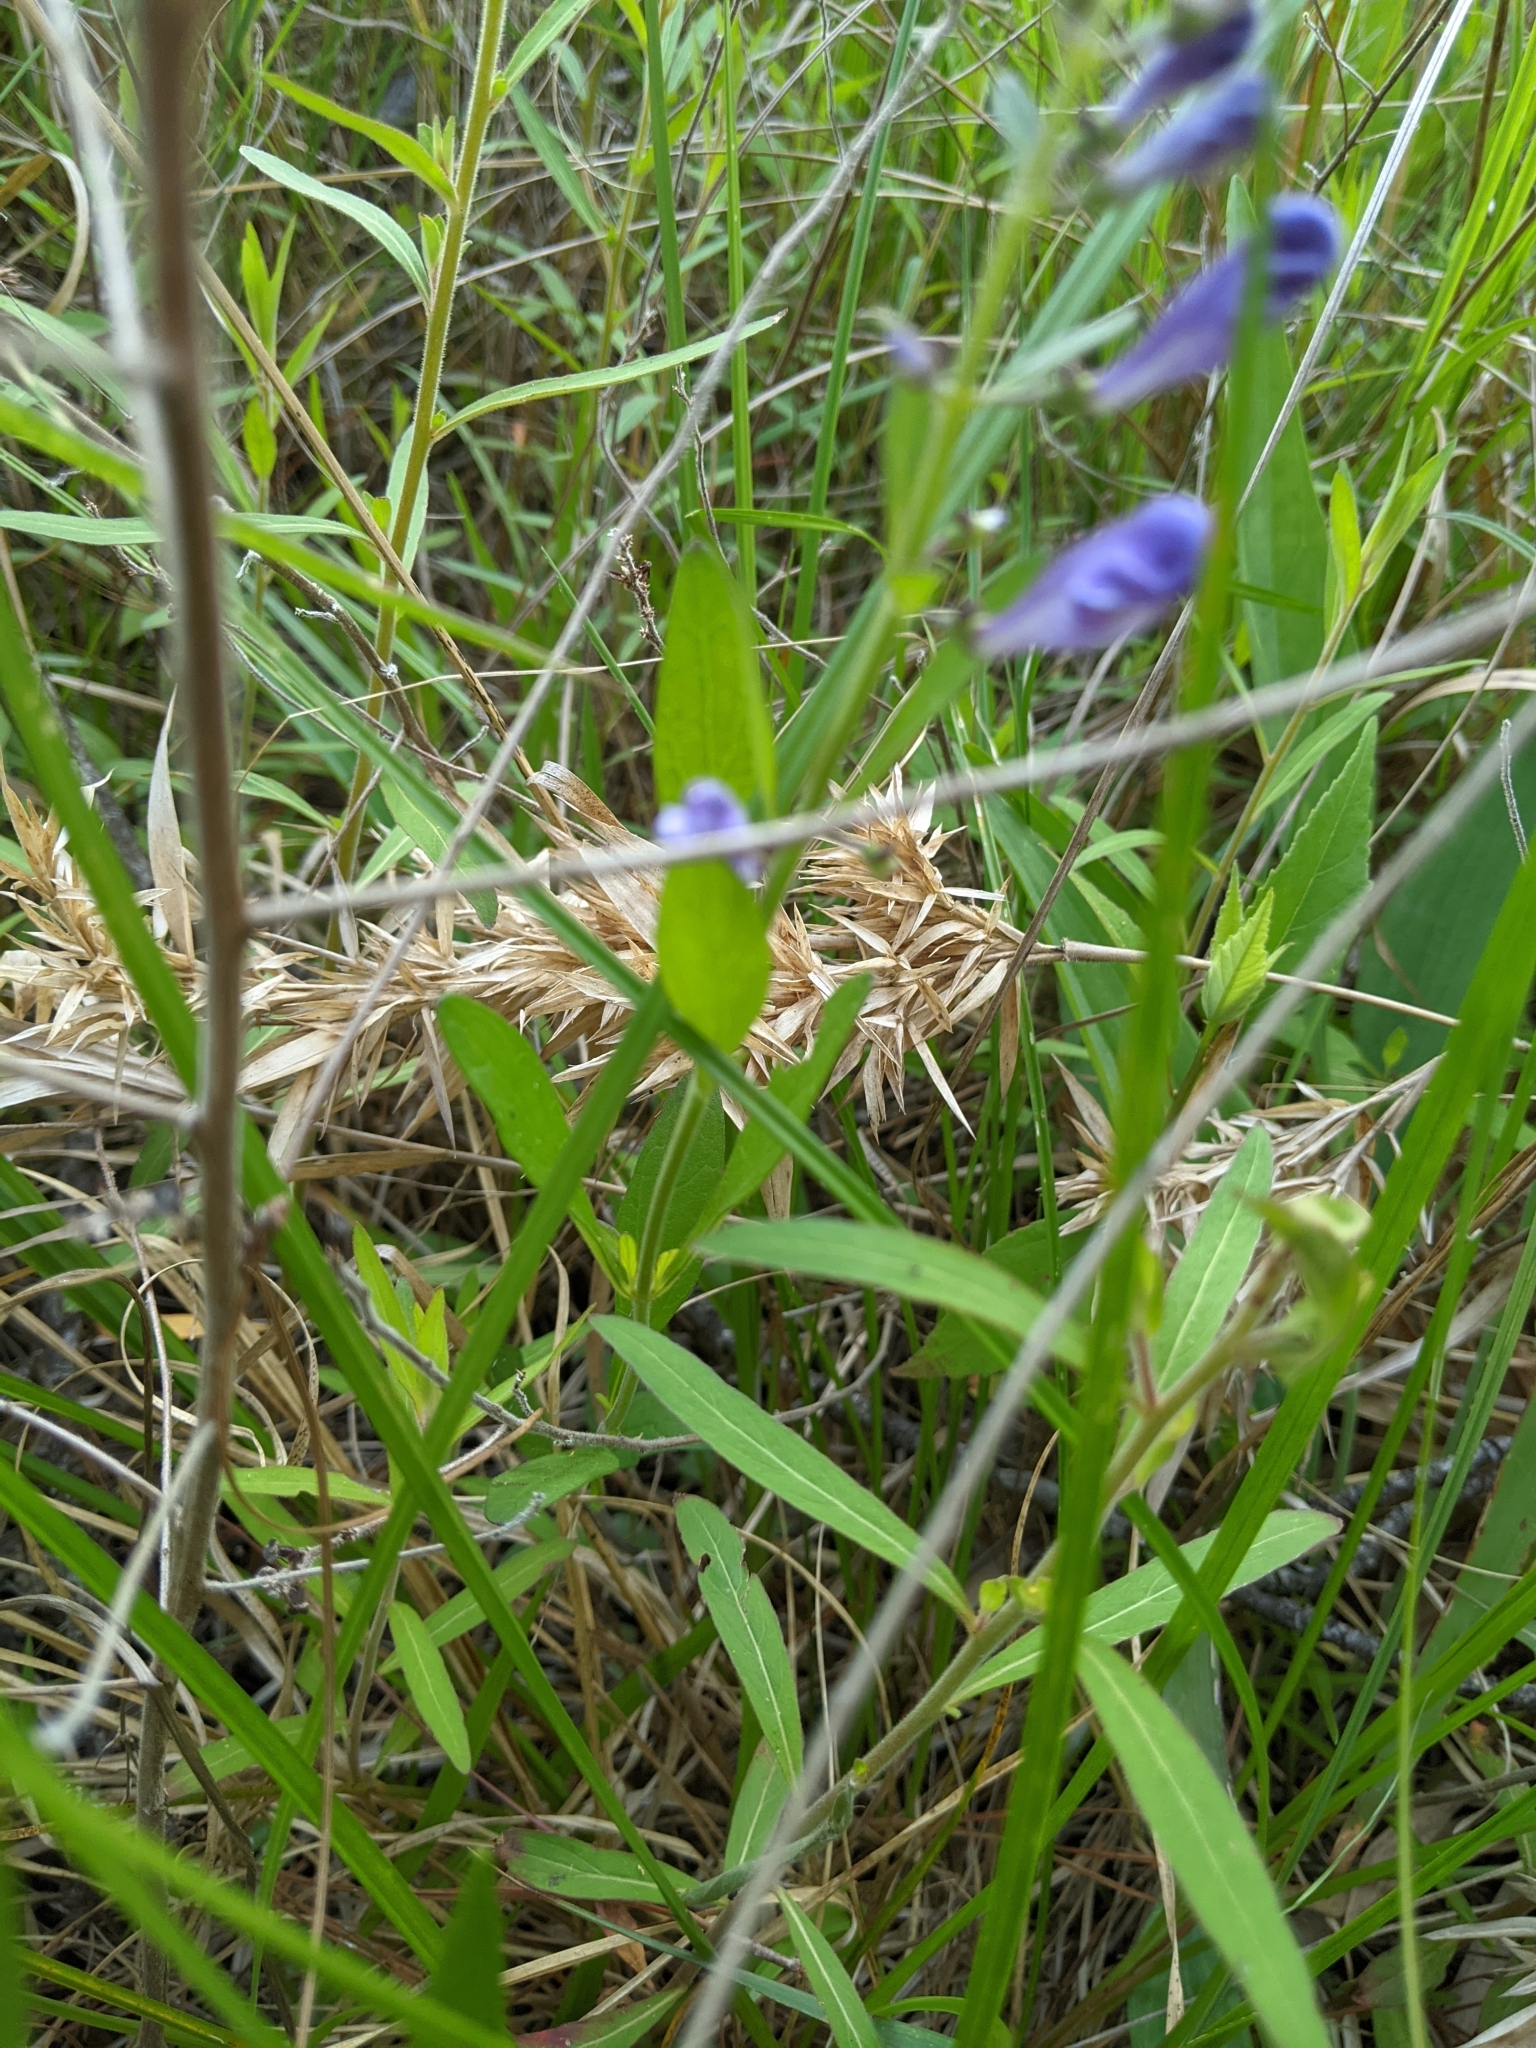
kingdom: Plantae
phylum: Tracheophyta
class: Magnoliopsida
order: Lamiales
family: Lamiaceae
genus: Scutellaria
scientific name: Scutellaria integrifolia
